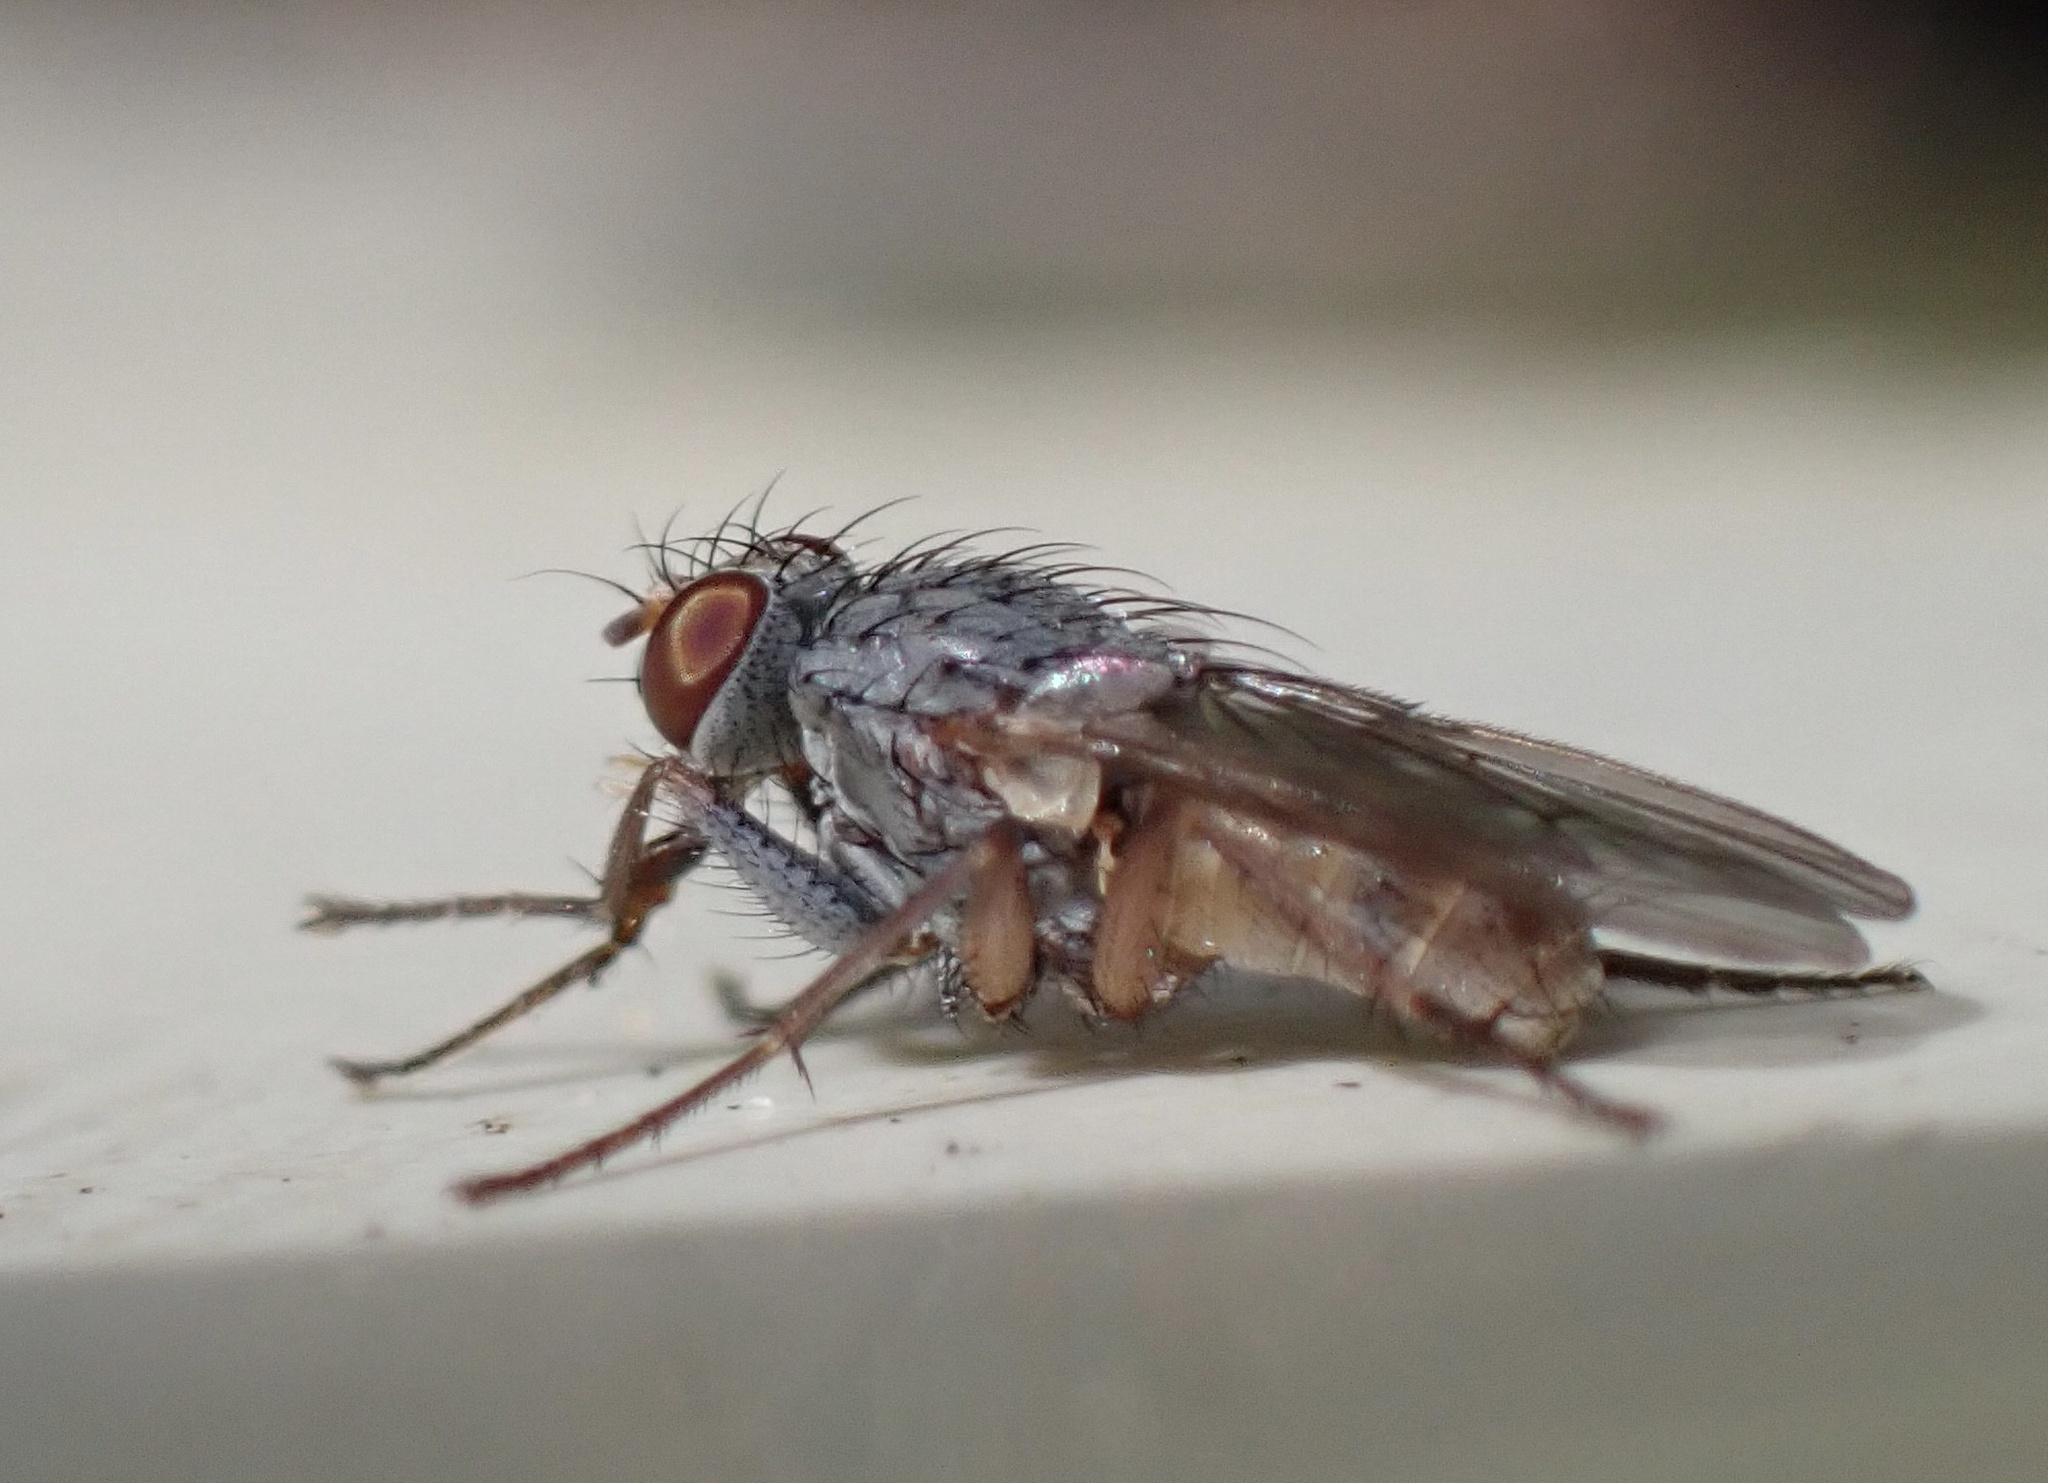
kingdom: Animalia
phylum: Arthropoda
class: Insecta
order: Diptera
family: Muscidae
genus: Lispocephala
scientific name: Lispocephala brachialis
